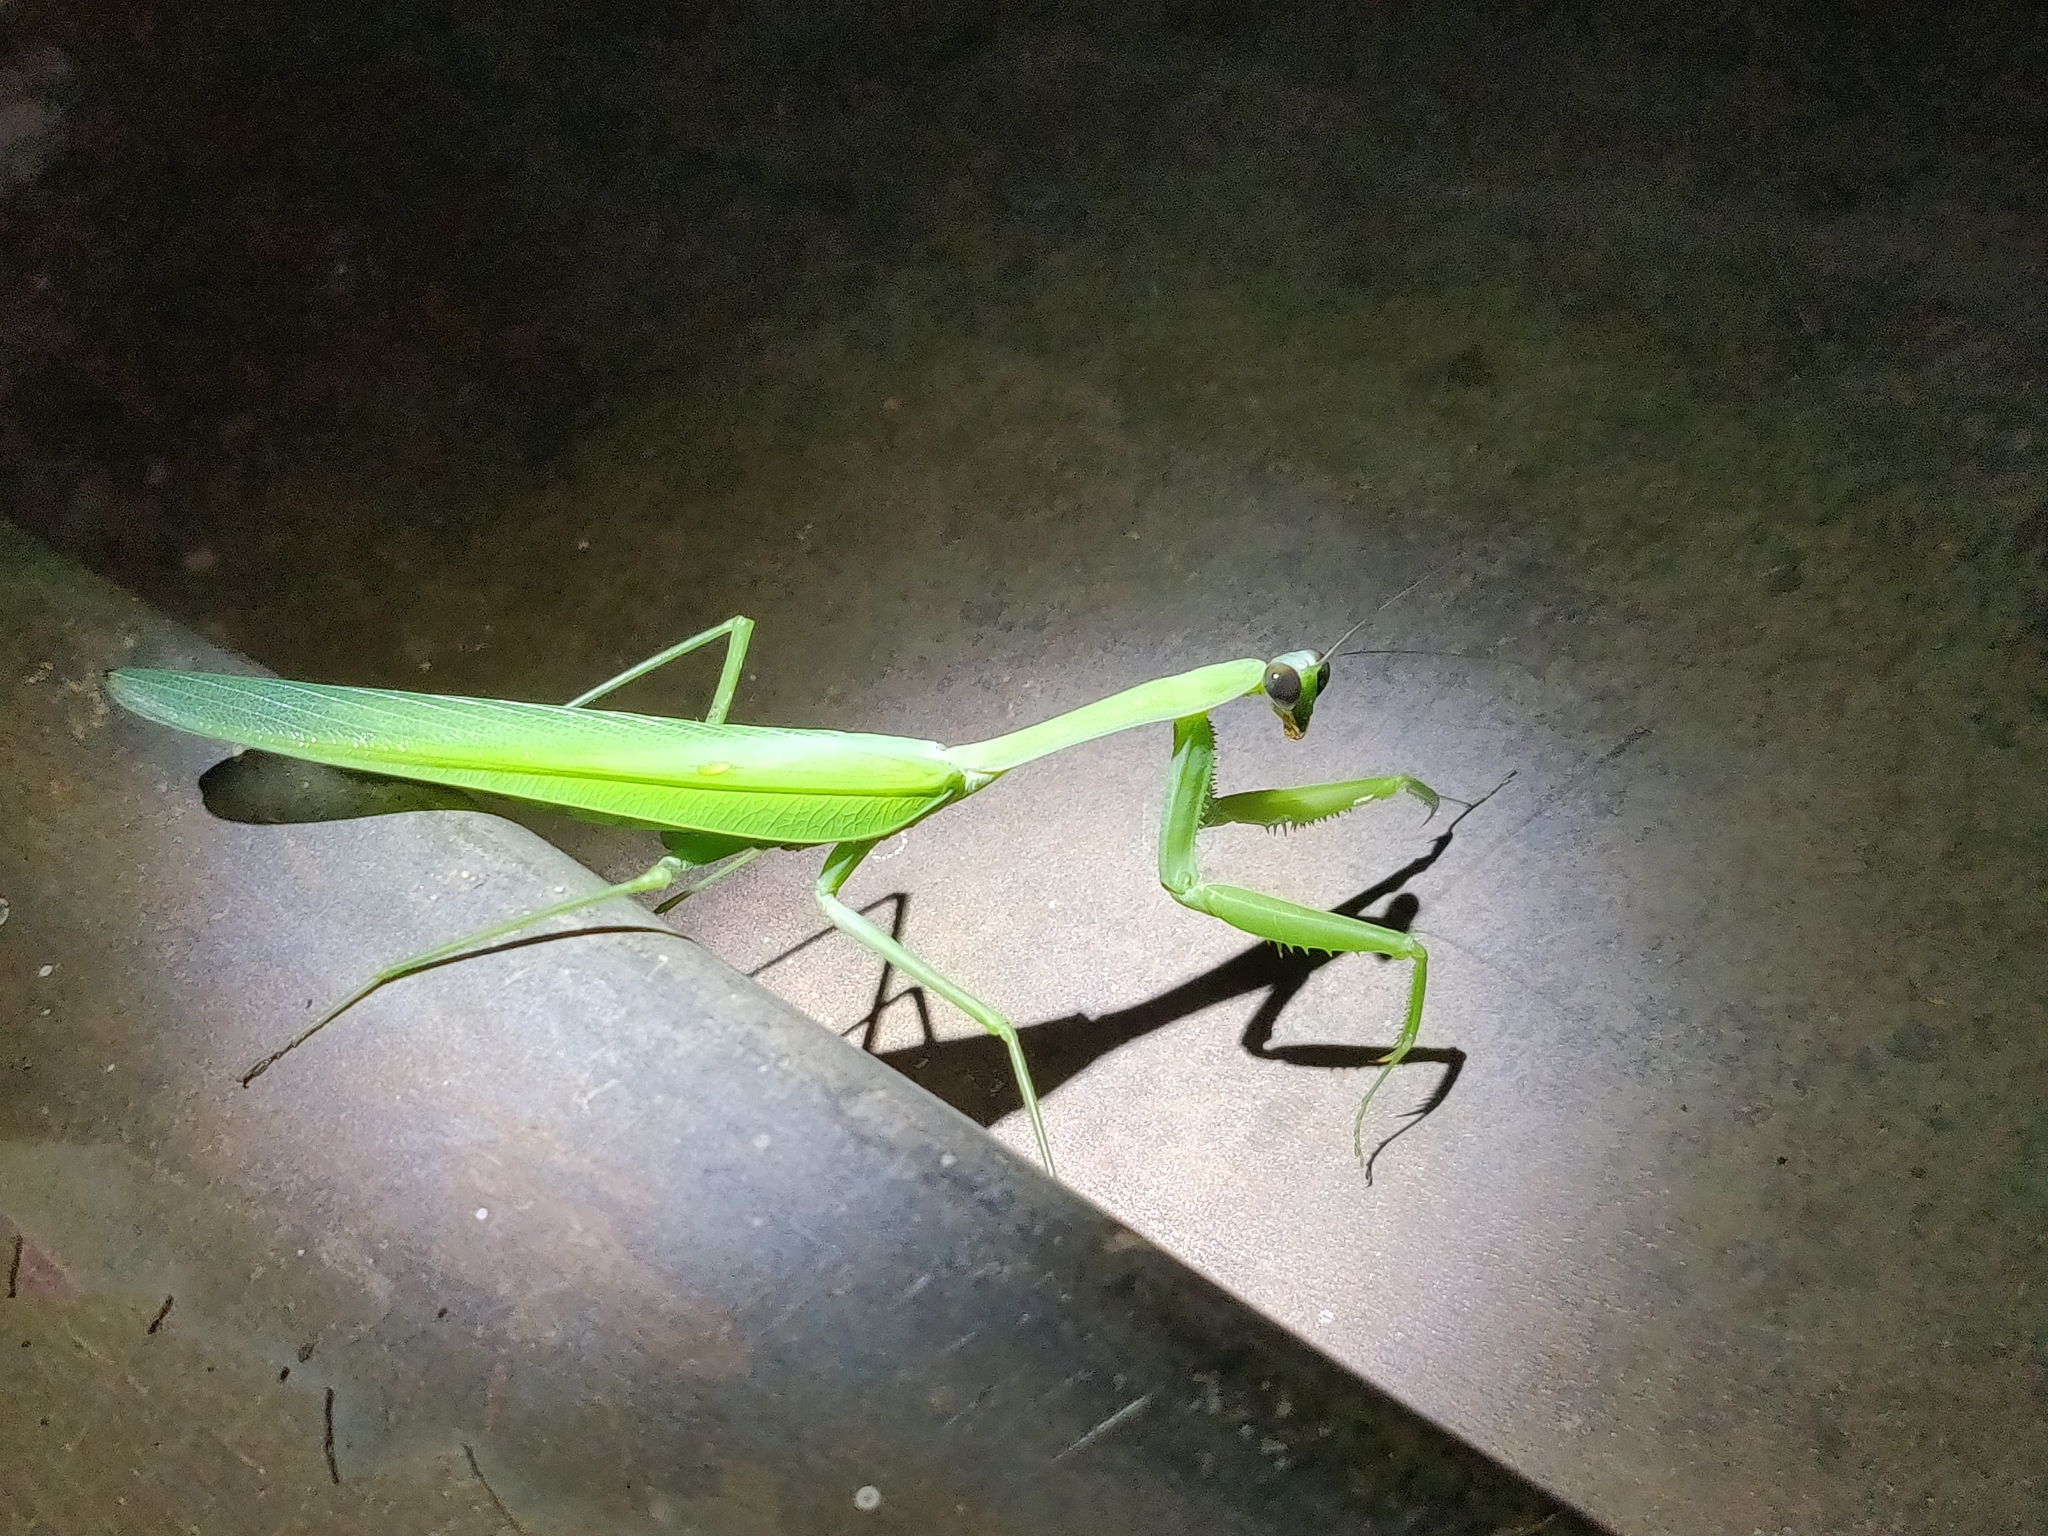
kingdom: Animalia
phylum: Arthropoda
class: Insecta
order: Mantodea
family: Mantidae
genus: Hierodula
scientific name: Hierodula membranacea
